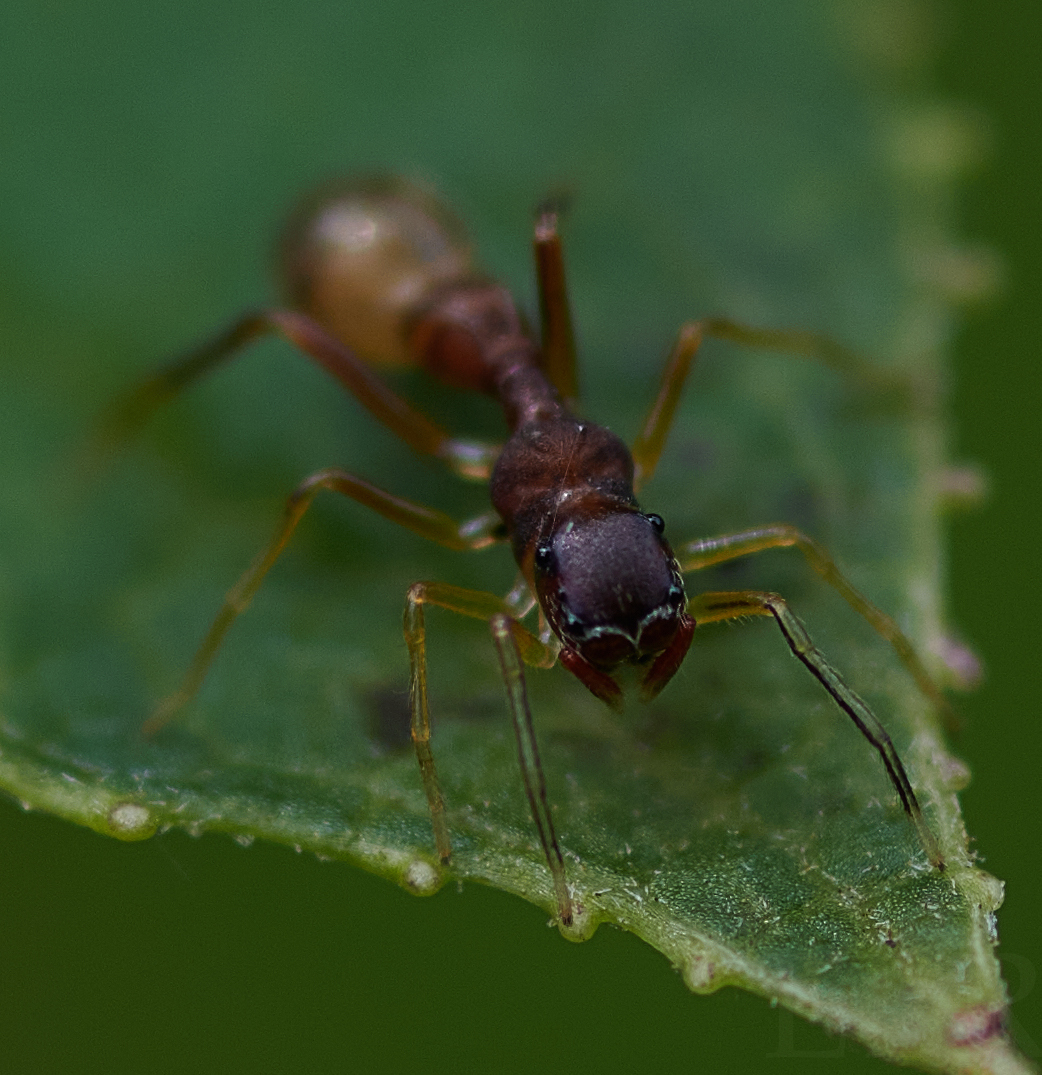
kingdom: Animalia
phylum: Arthropoda
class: Arachnida
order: Araneae
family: Salticidae
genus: Synemosyna
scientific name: Synemosyna formica
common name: Slender ant-mimic jumping spider
